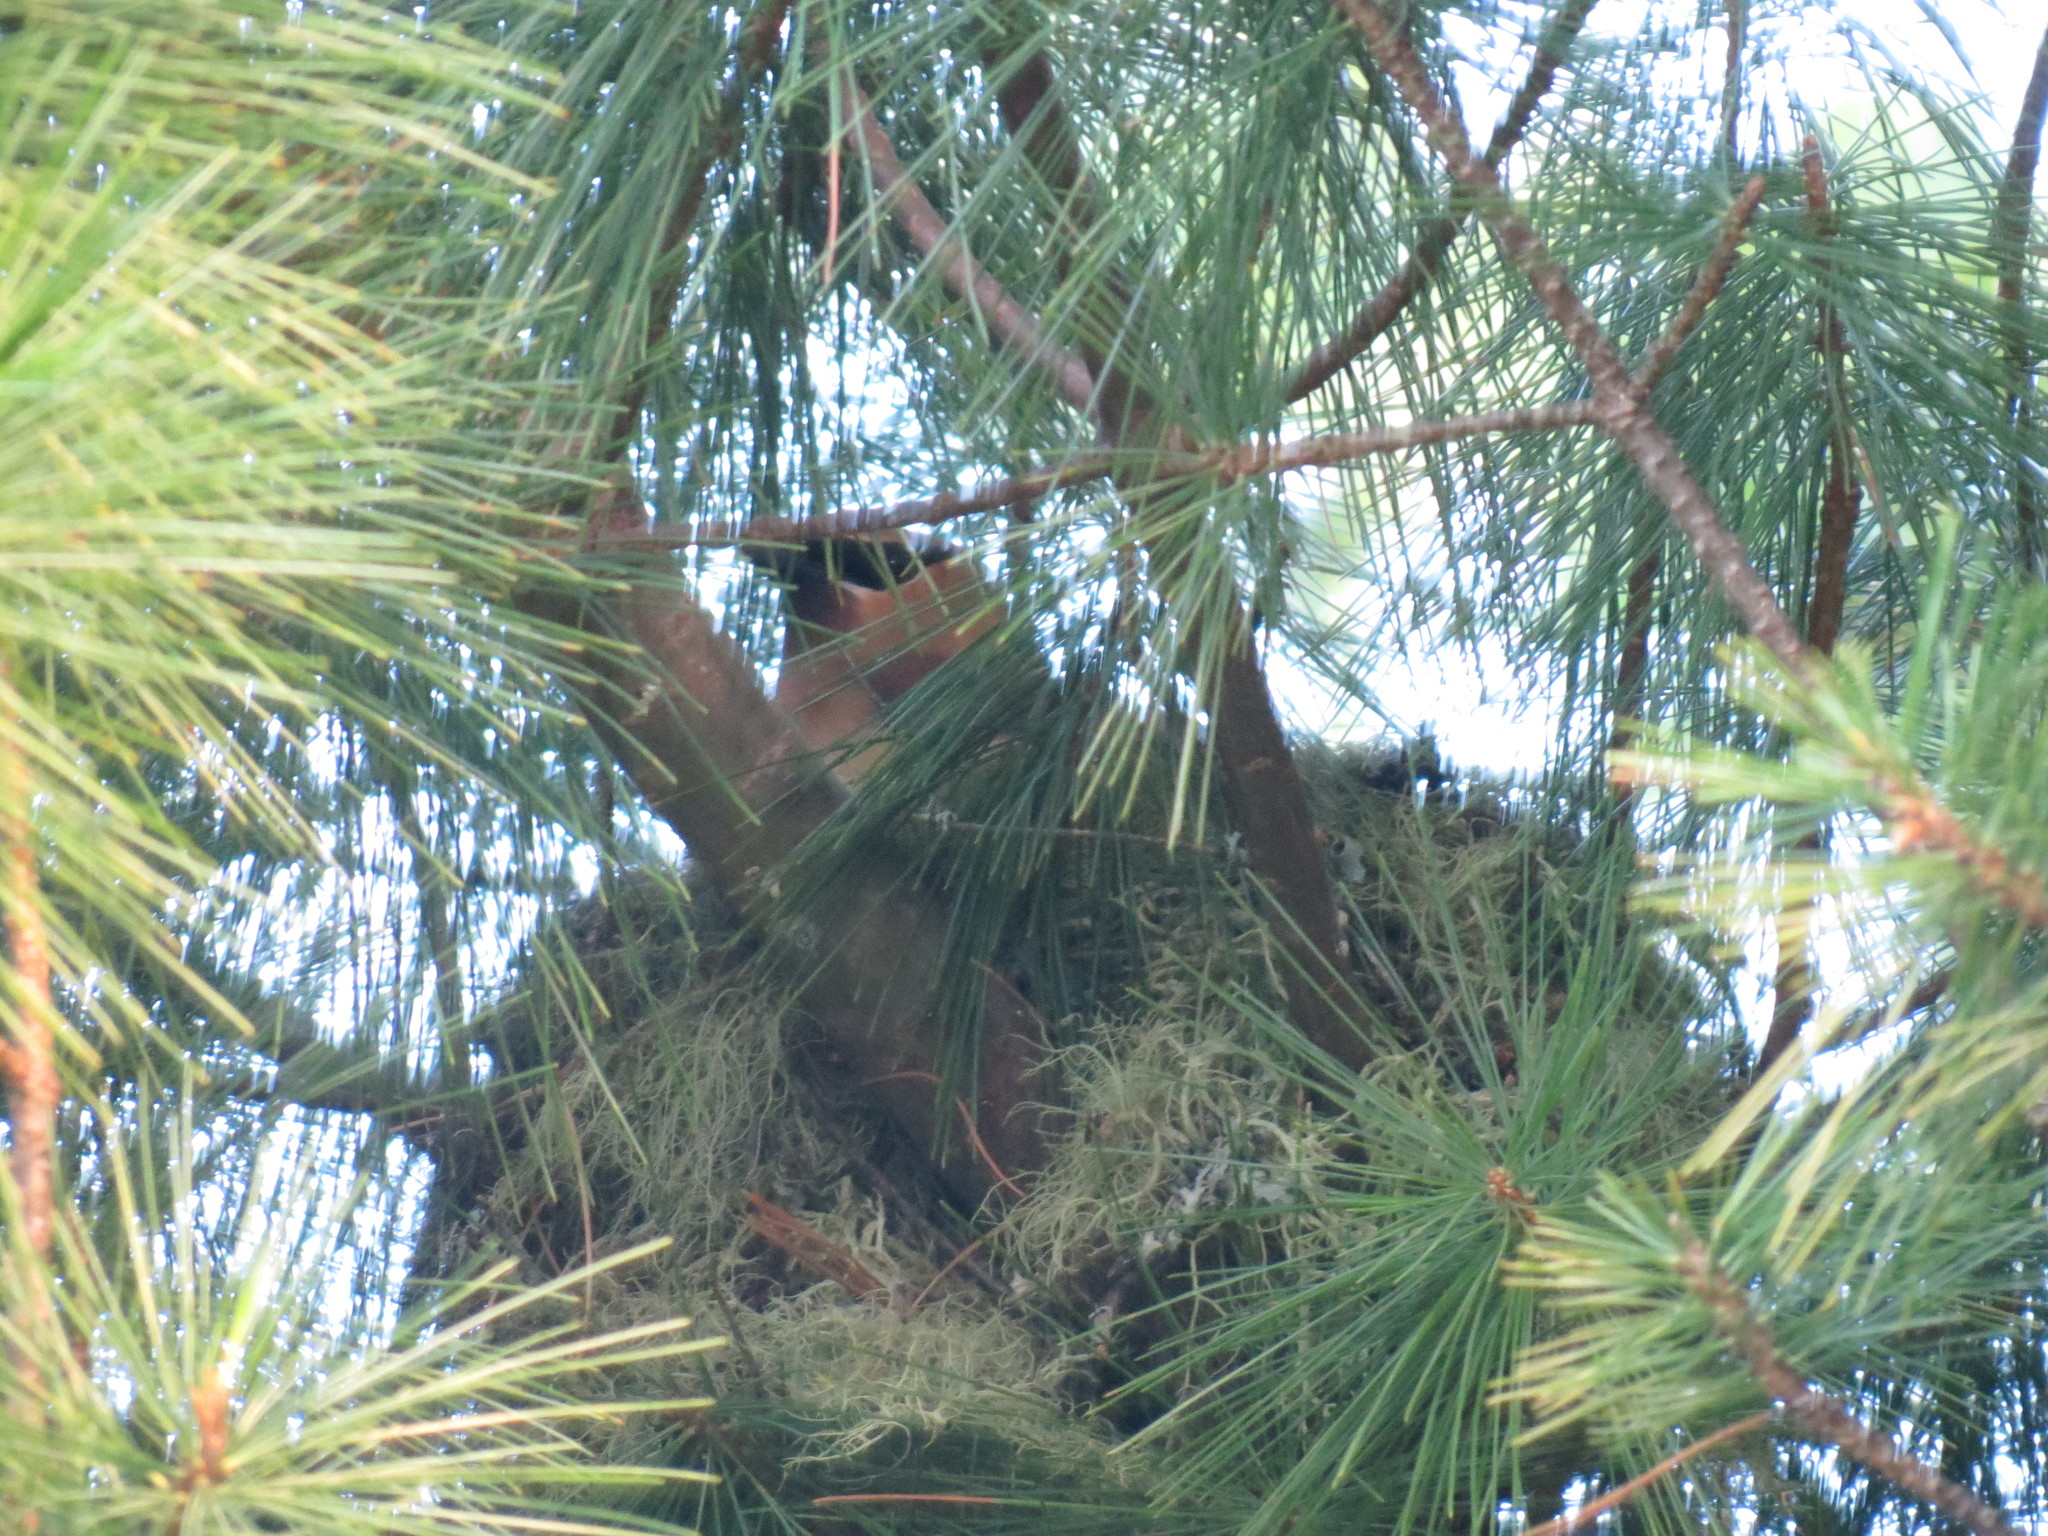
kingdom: Animalia
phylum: Chordata
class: Aves
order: Passeriformes
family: Bombycillidae
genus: Bombycilla
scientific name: Bombycilla cedrorum
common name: Cedar waxwing
